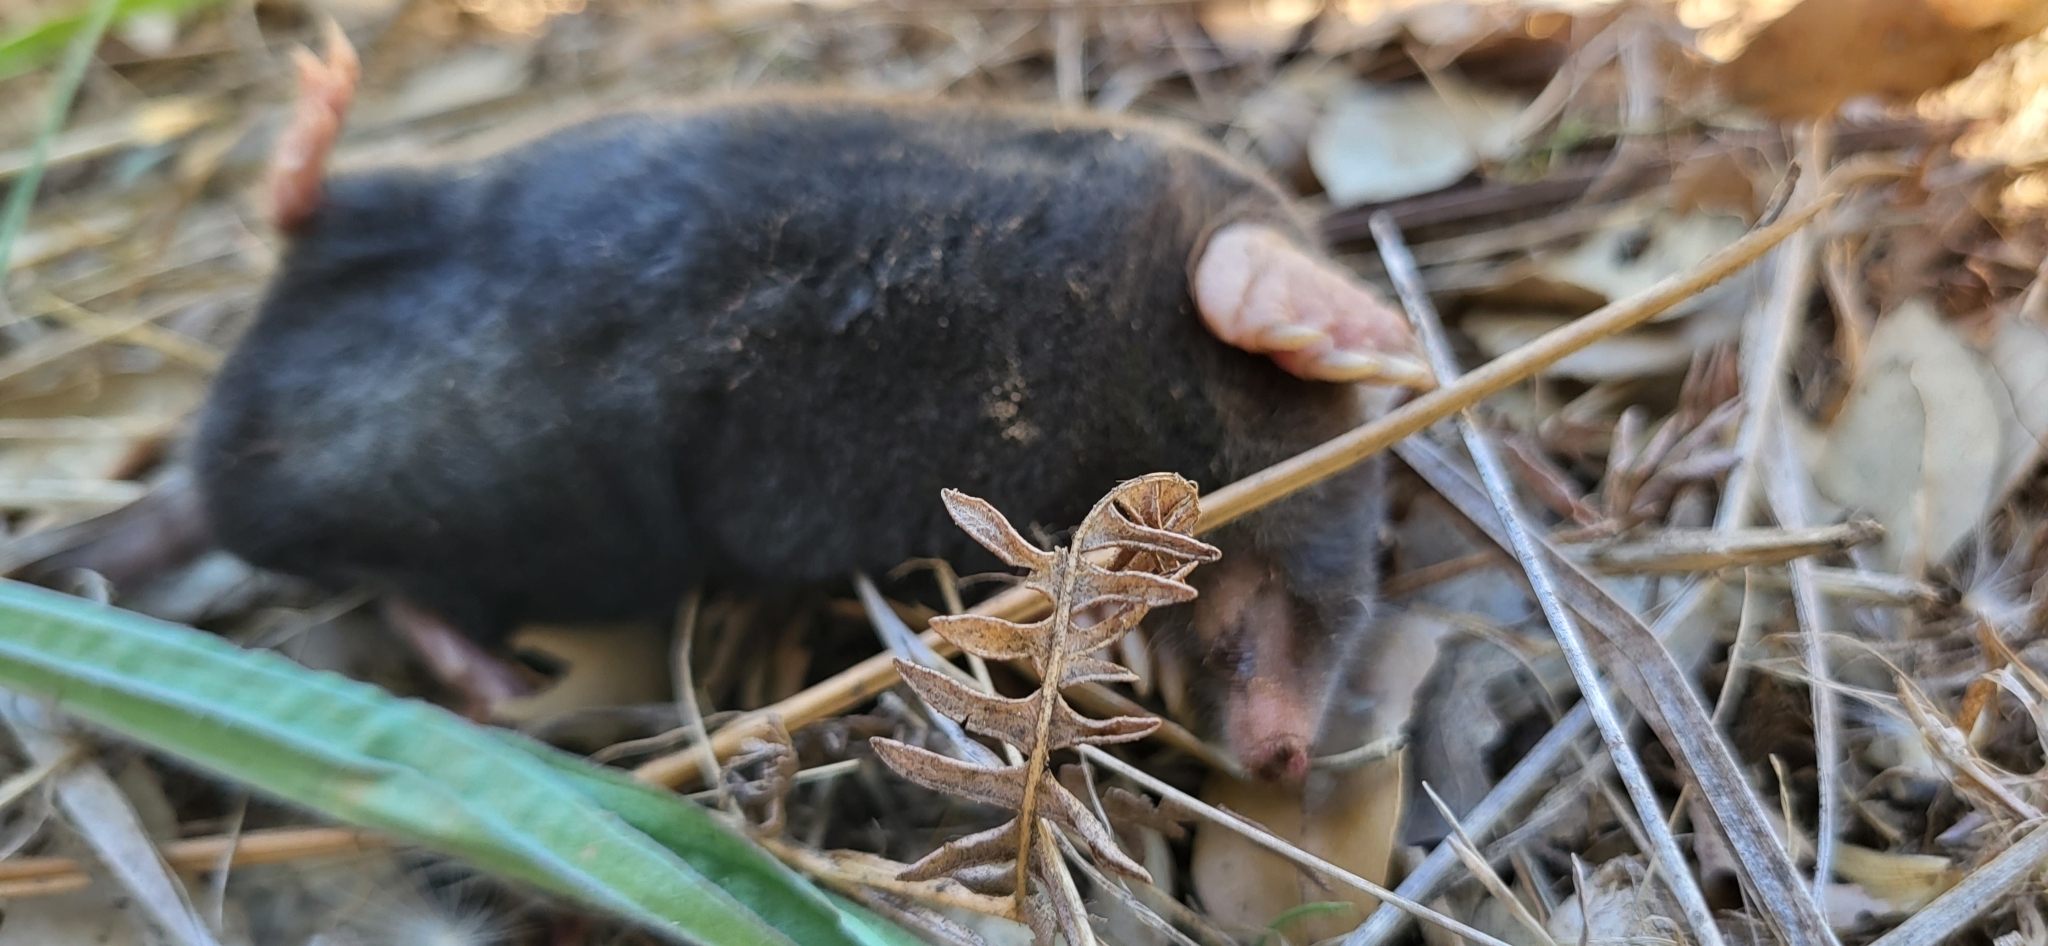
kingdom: Animalia
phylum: Chordata
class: Mammalia
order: Soricomorpha
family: Talpidae
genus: Talpa
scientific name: Talpa occidentalis
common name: Iberian mole
